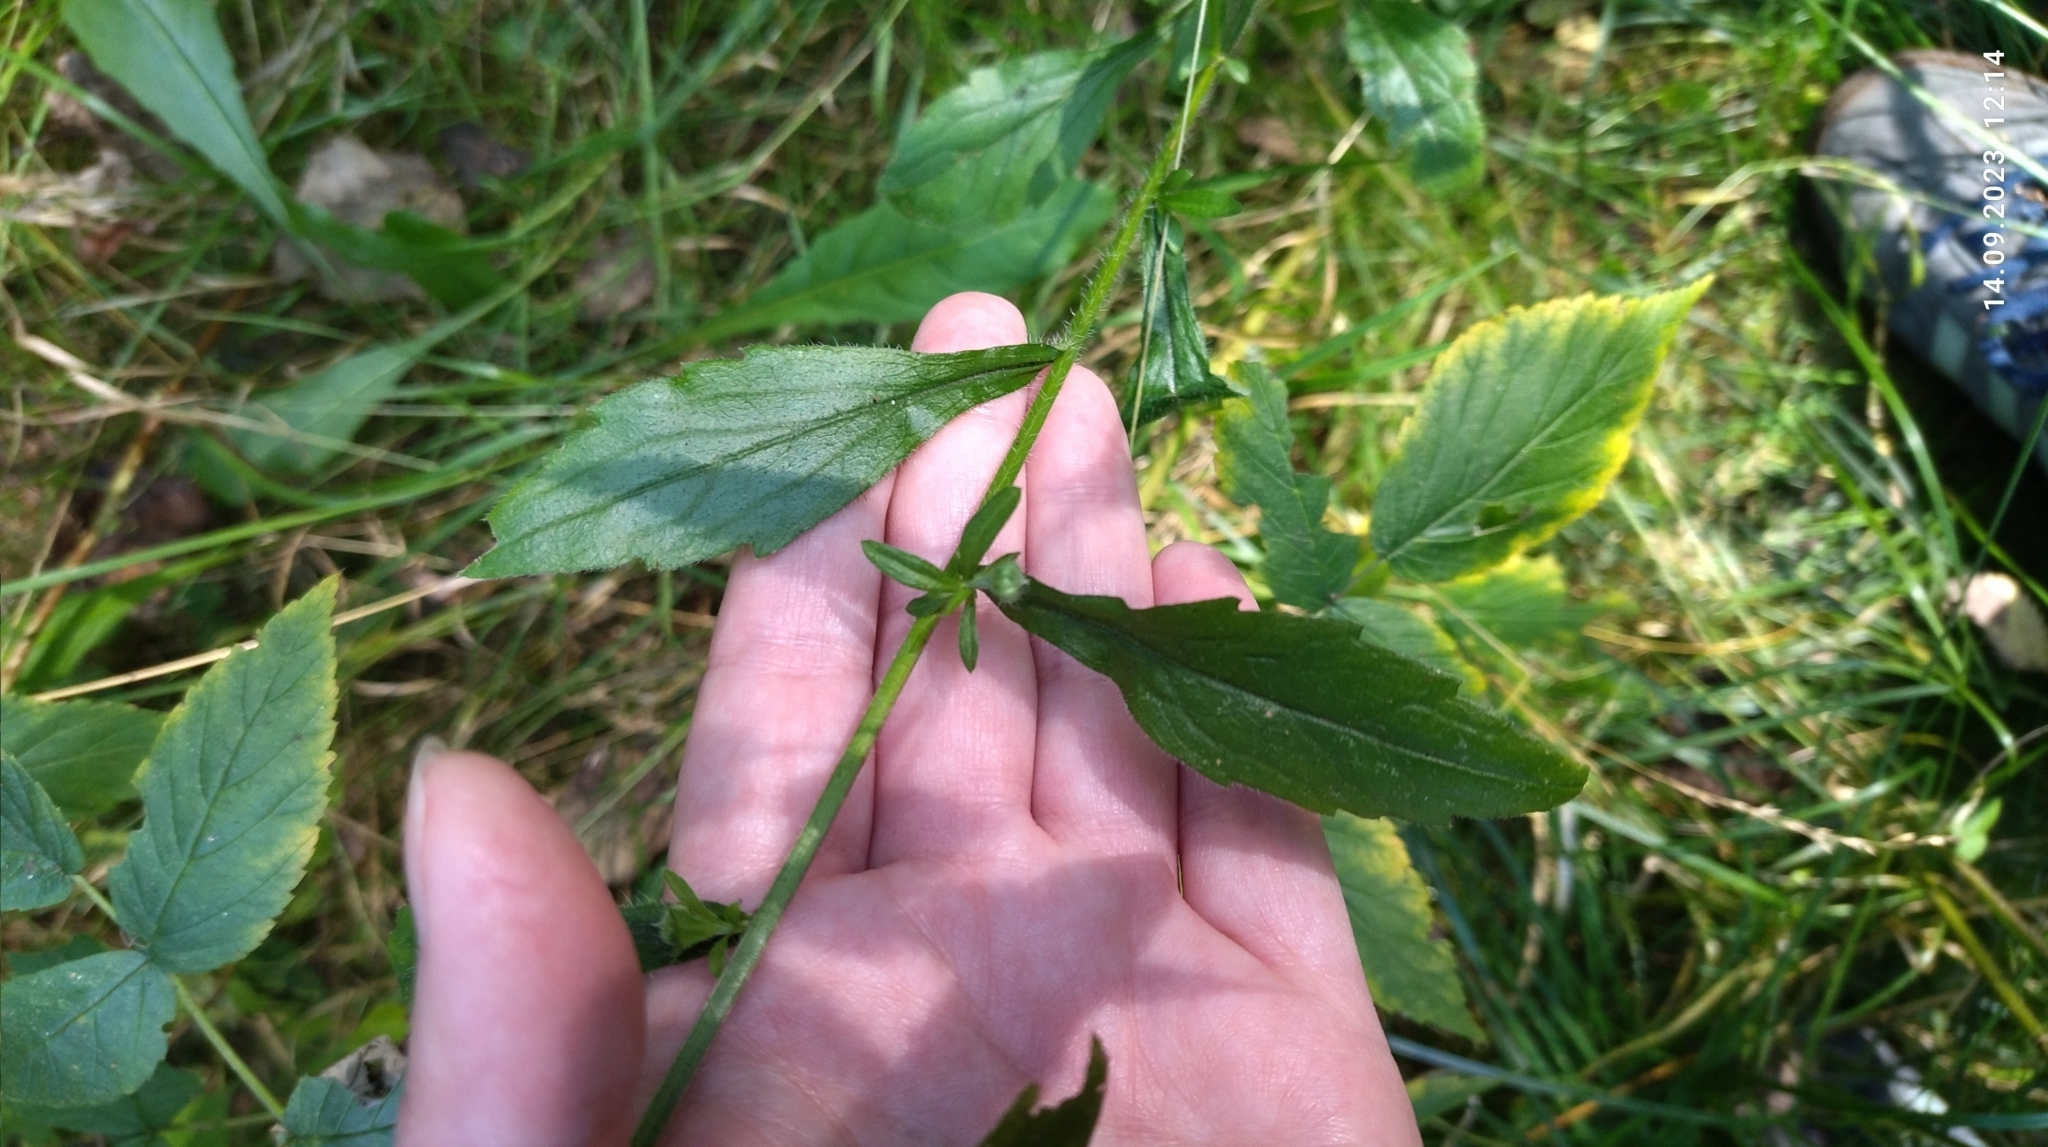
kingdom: Plantae
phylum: Tracheophyta
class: Magnoliopsida
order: Asterales
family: Asteraceae
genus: Erigeron
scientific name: Erigeron annuus
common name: Tall fleabane
